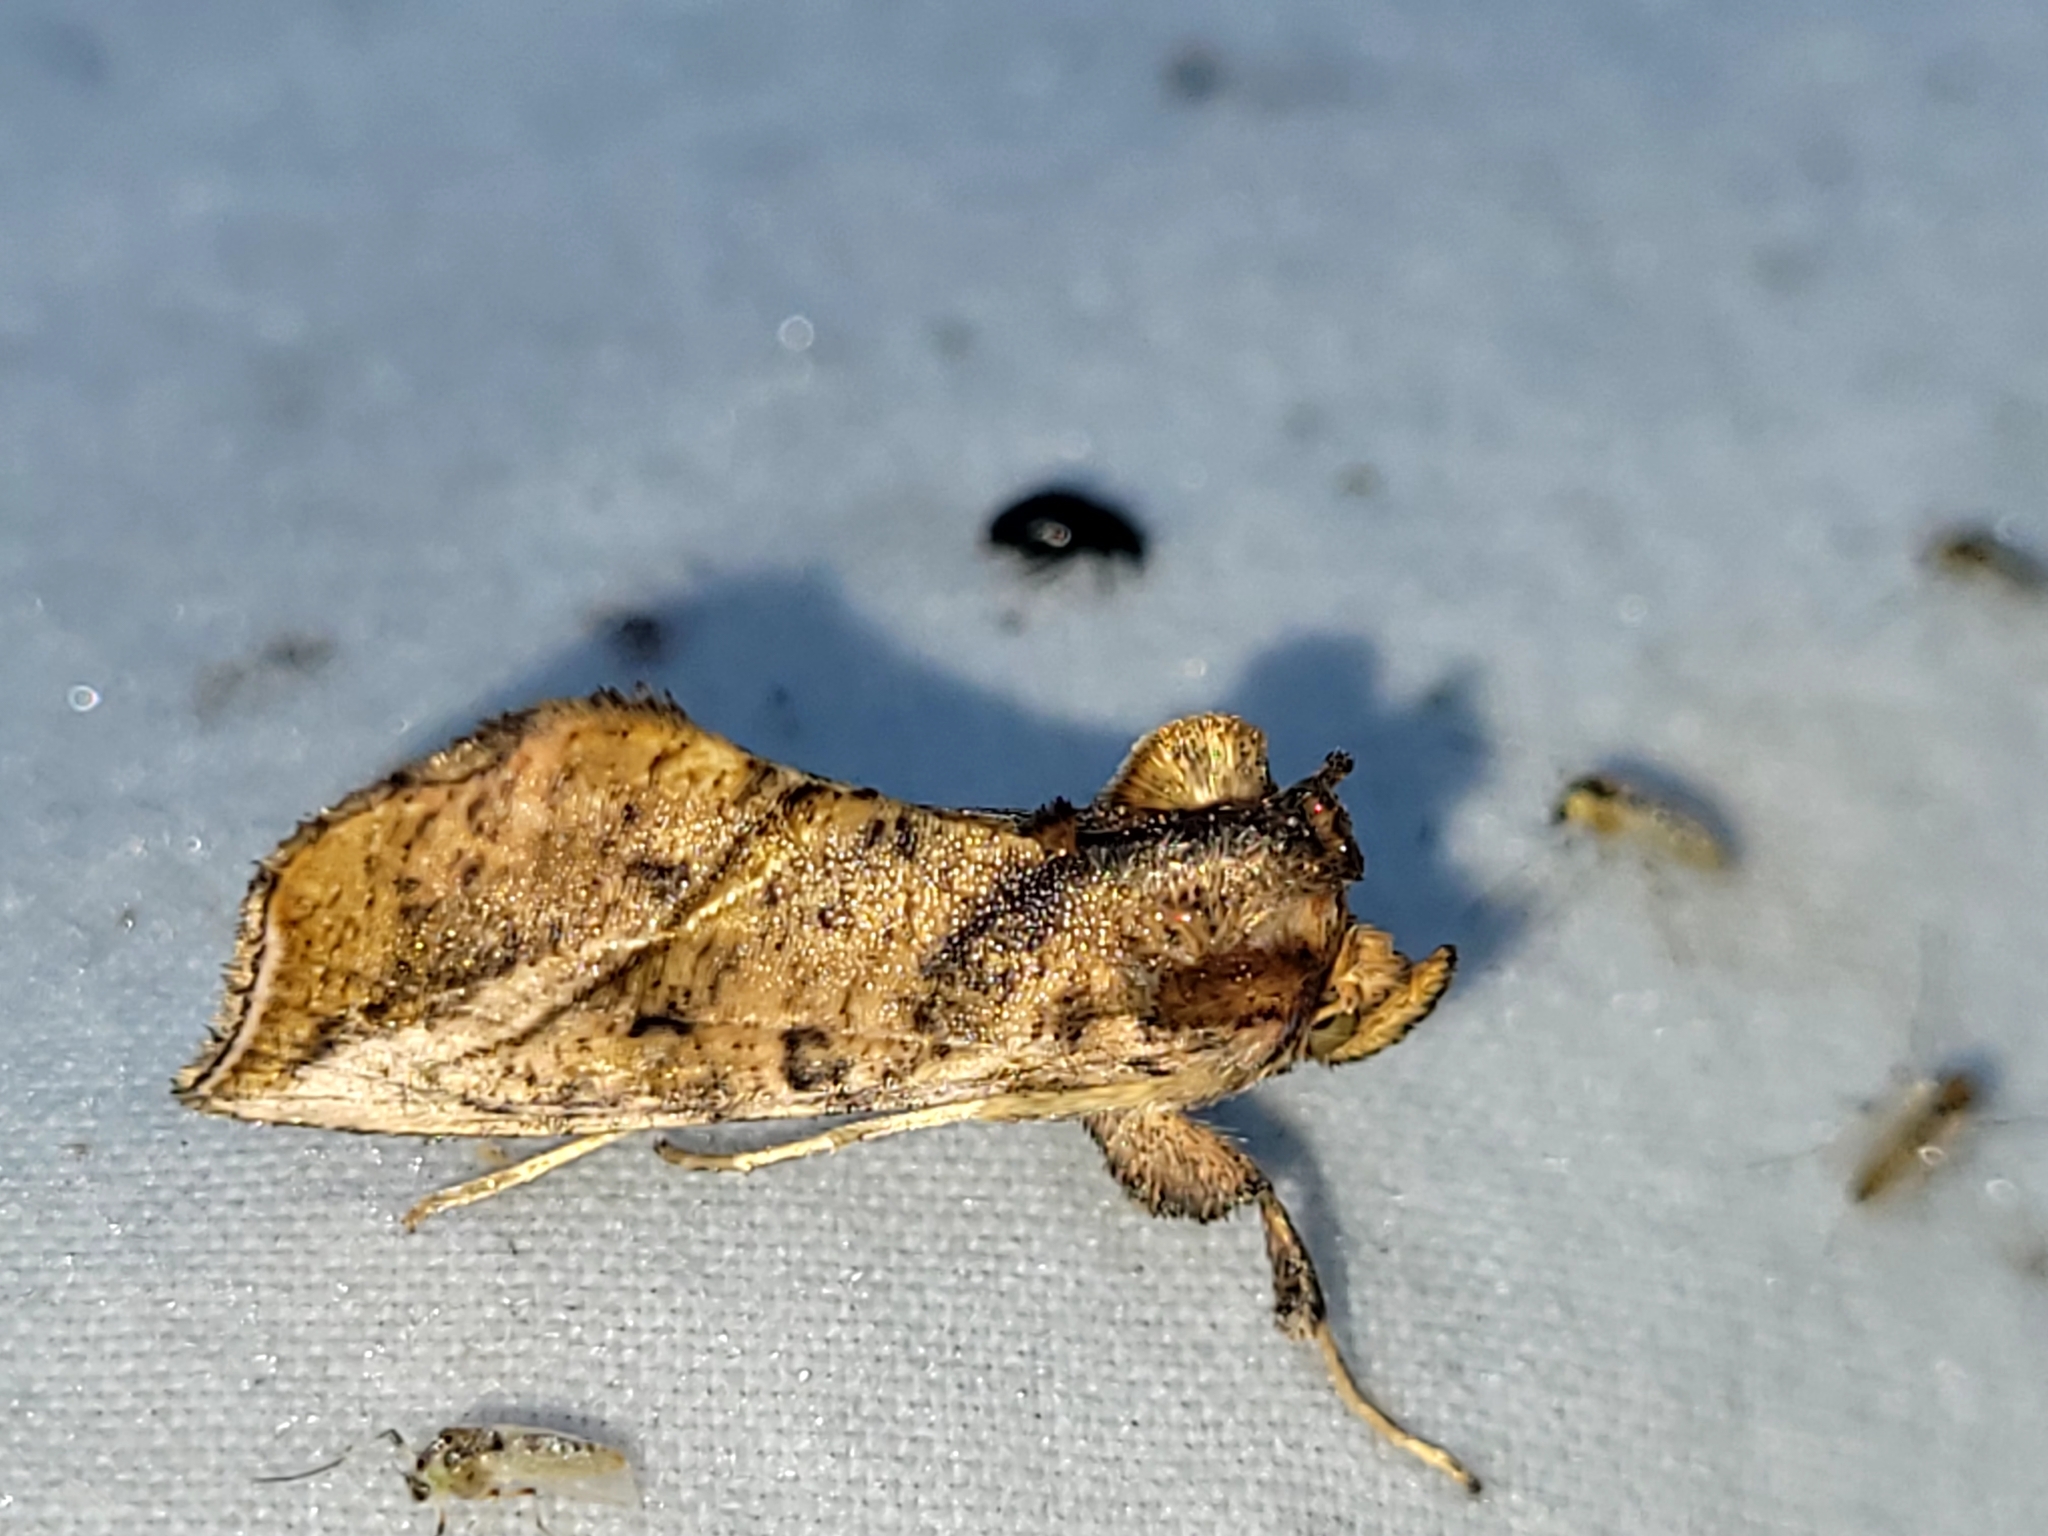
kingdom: Animalia
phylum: Arthropoda
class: Insecta
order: Lepidoptera
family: Noctuidae
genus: Pseudeva
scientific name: Pseudeva purpurigera
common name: Straight-lined looper moth
